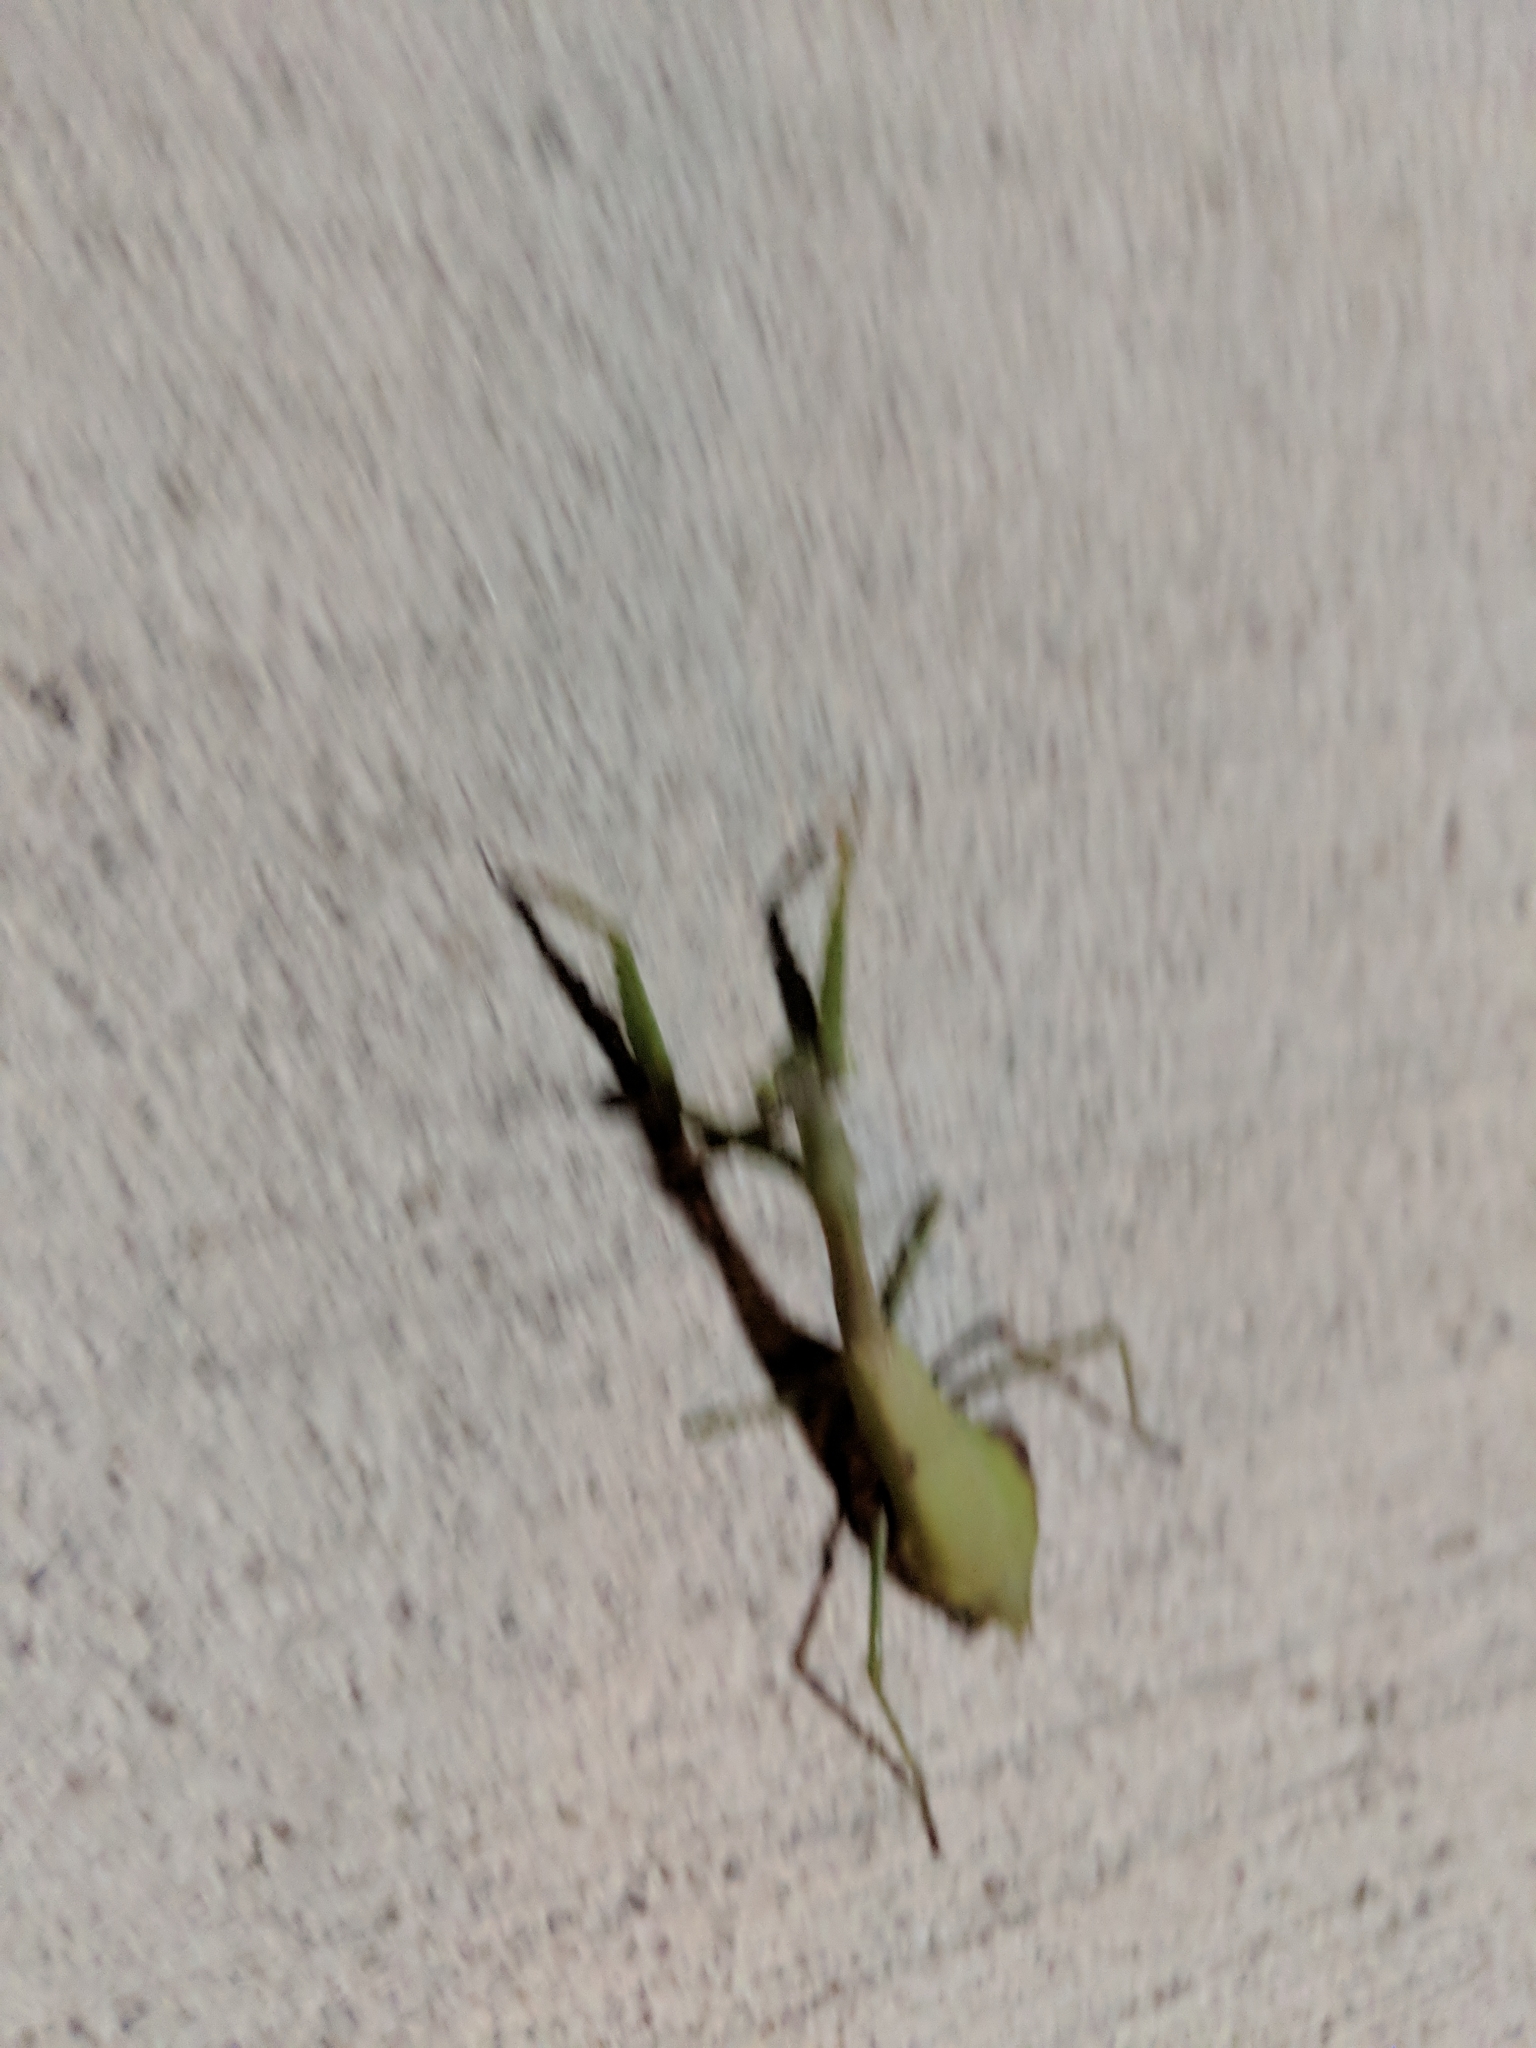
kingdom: Animalia
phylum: Arthropoda
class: Insecta
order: Mantodea
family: Mantidae
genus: Stagmomantis
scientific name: Stagmomantis carolina
